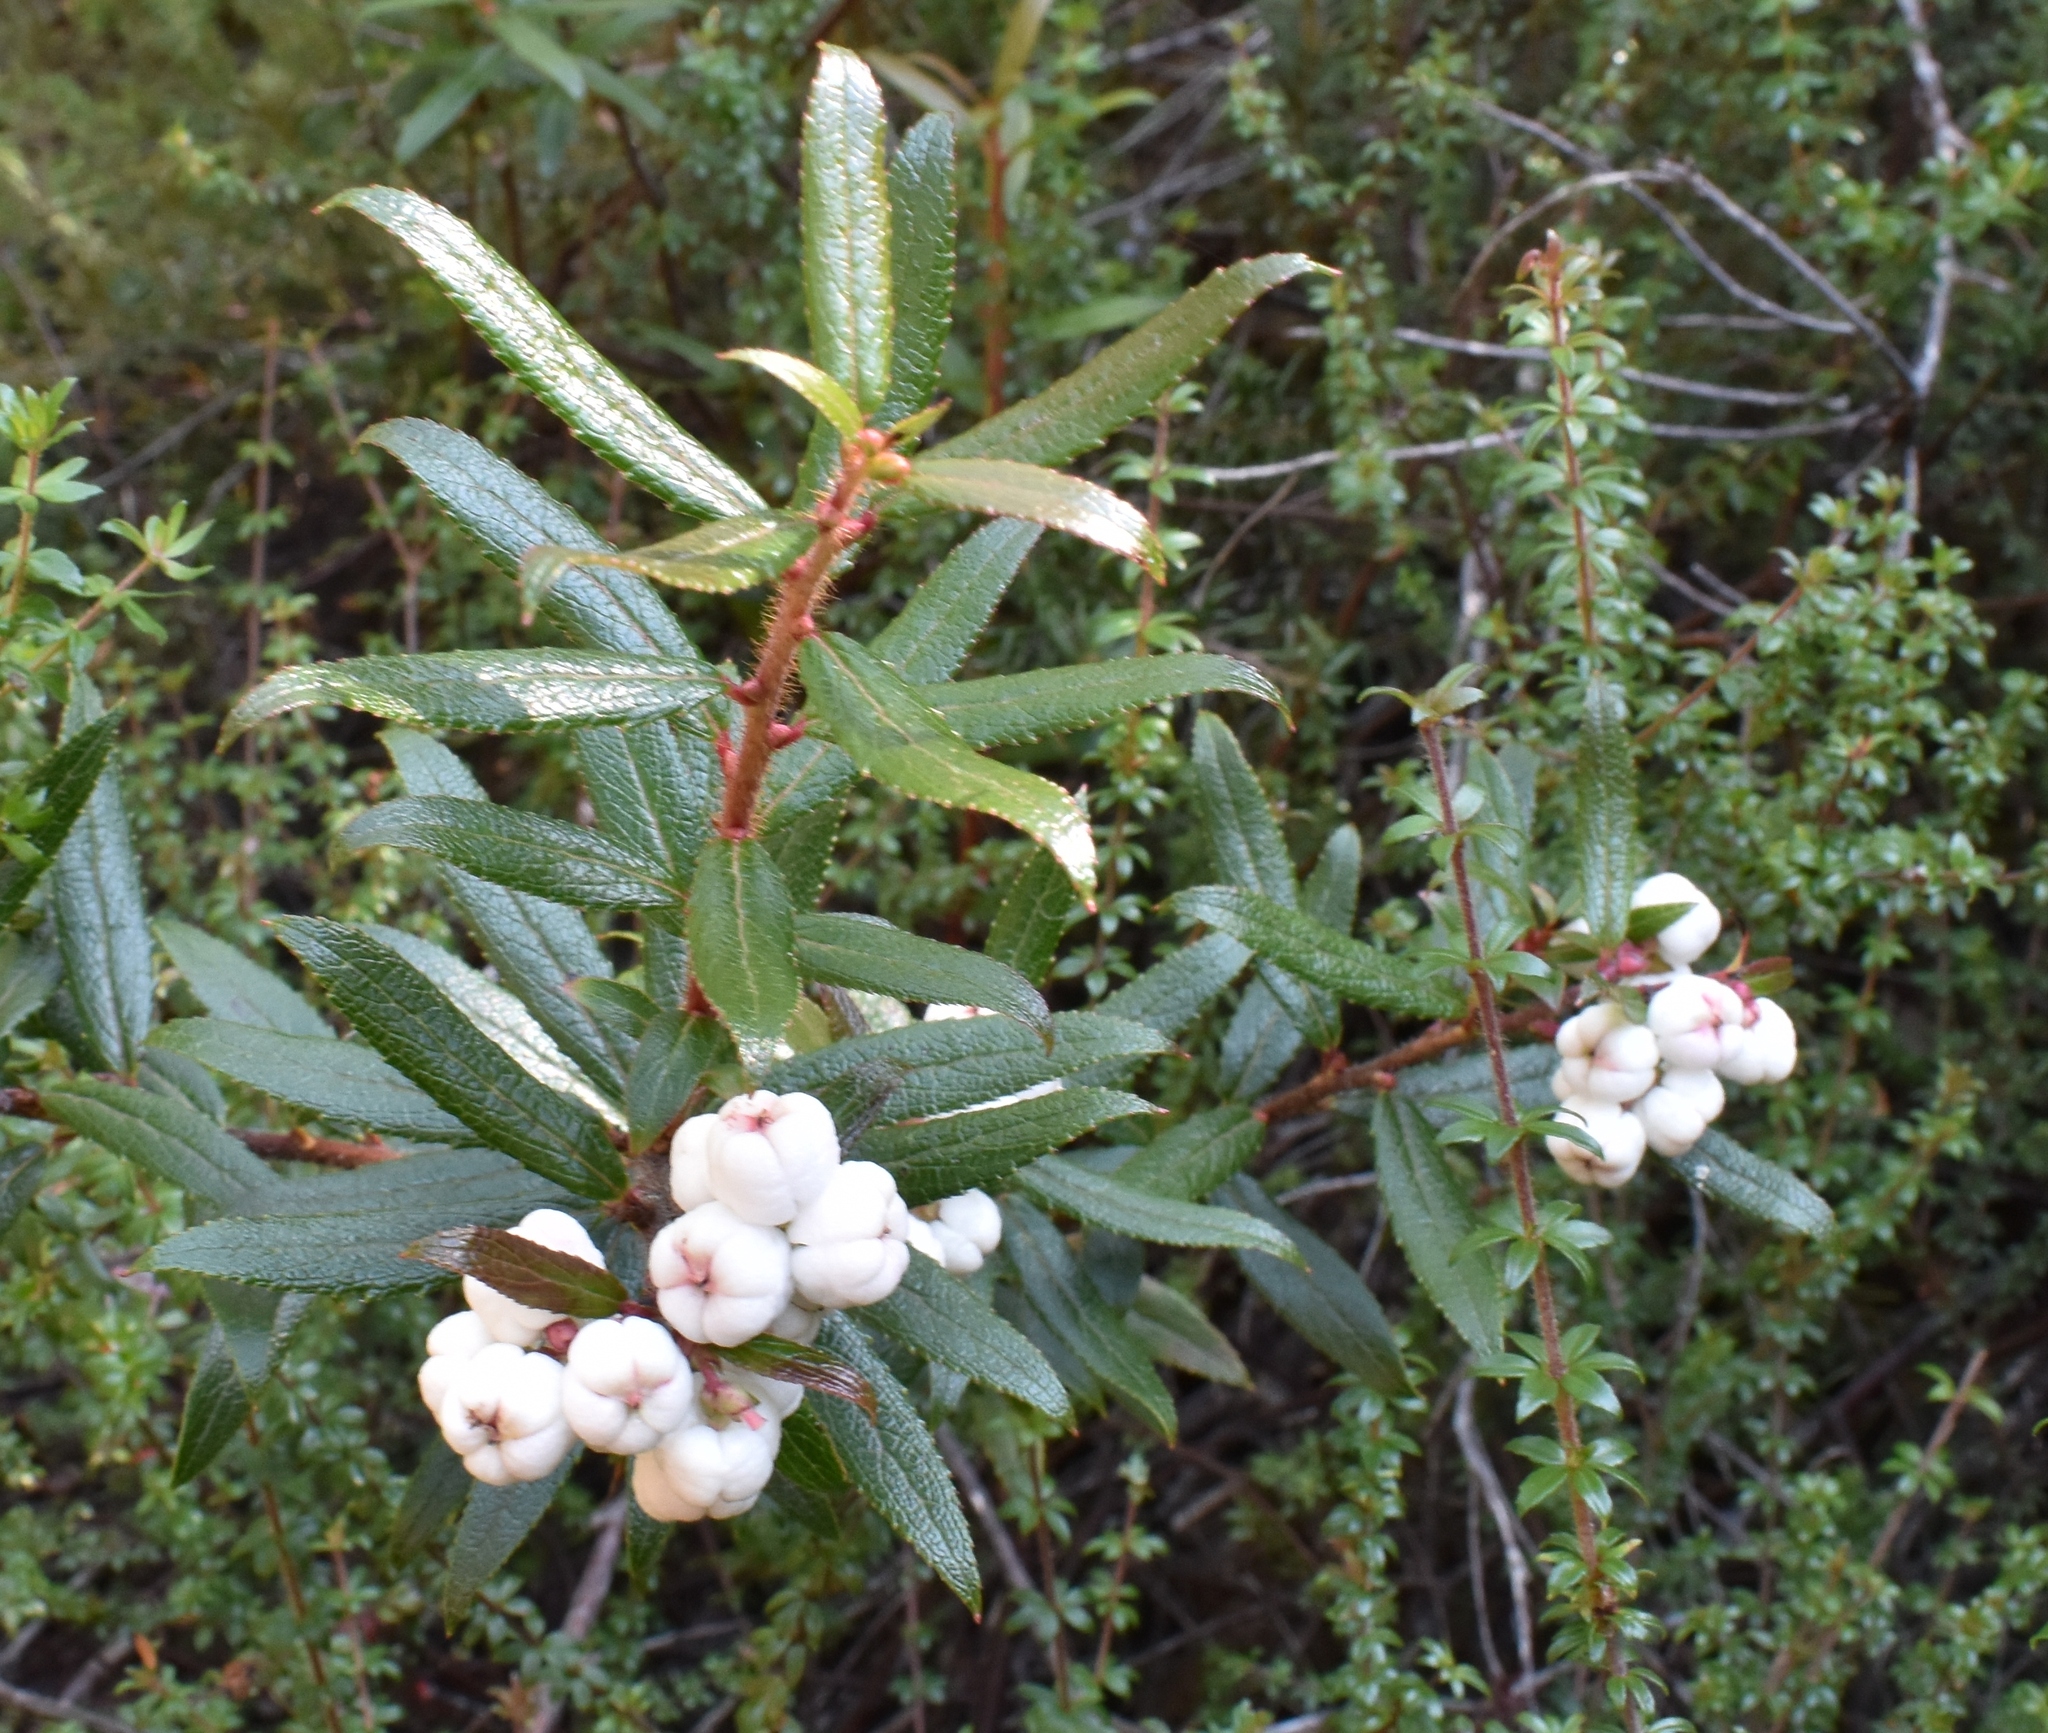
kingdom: Plantae
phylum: Tracheophyta
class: Magnoliopsida
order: Ericales
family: Ericaceae
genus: Gaultheria
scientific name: Gaultheria hispida
